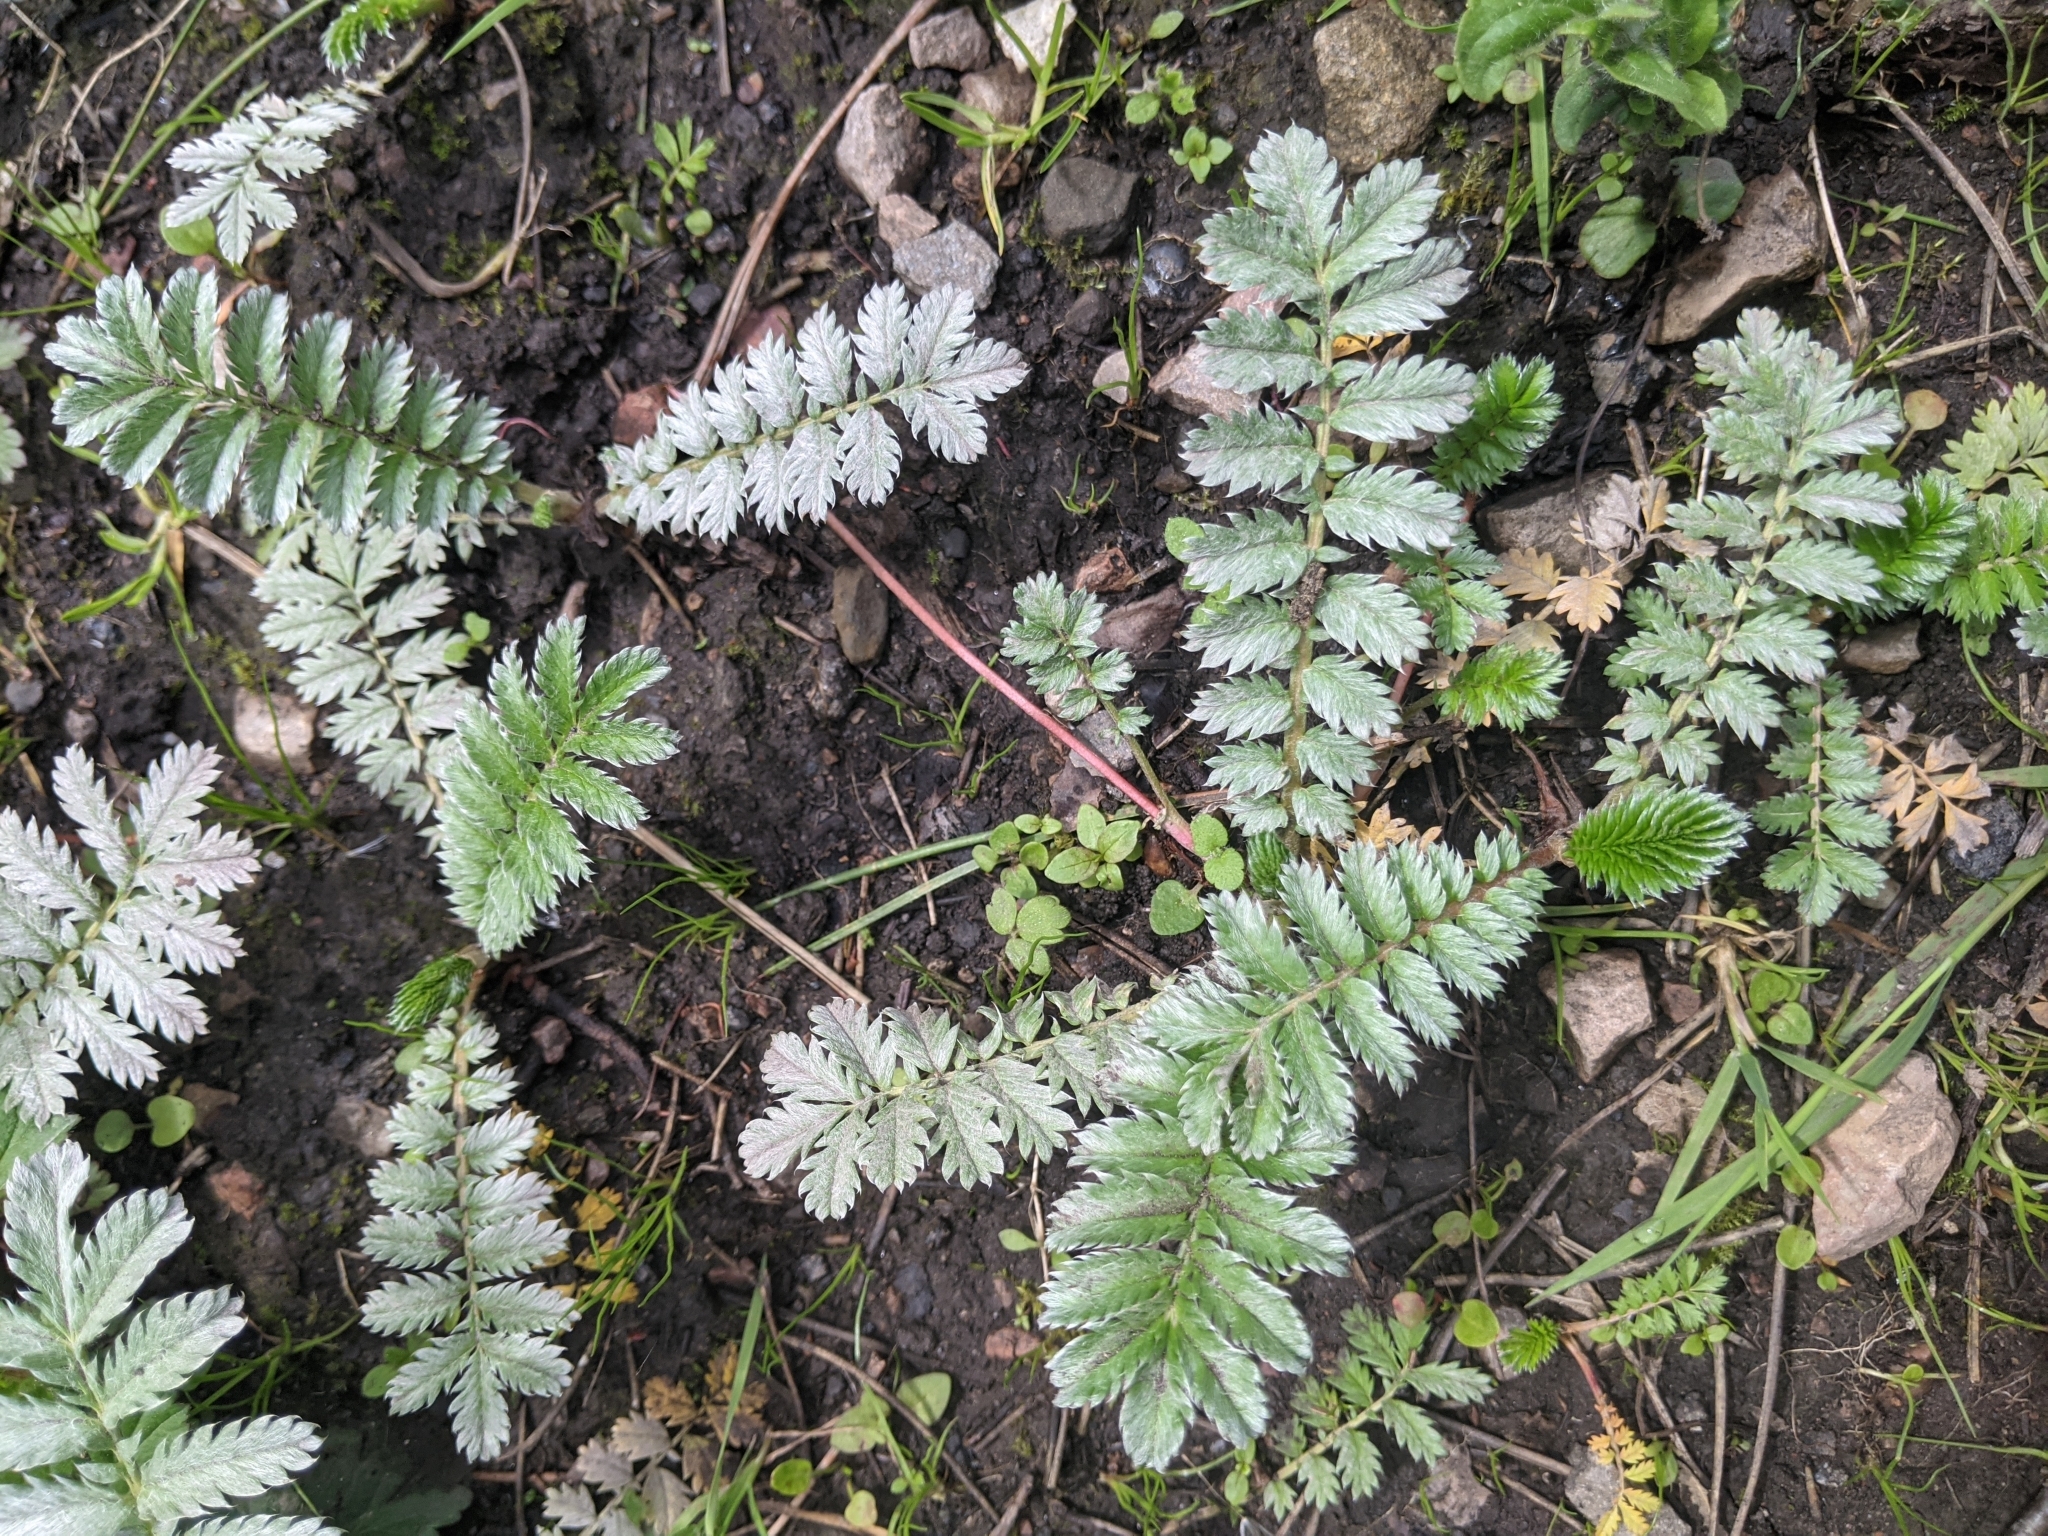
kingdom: Plantae
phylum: Tracheophyta
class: Magnoliopsida
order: Rosales
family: Rosaceae
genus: Argentina
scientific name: Argentina anserina
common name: Common silverweed
